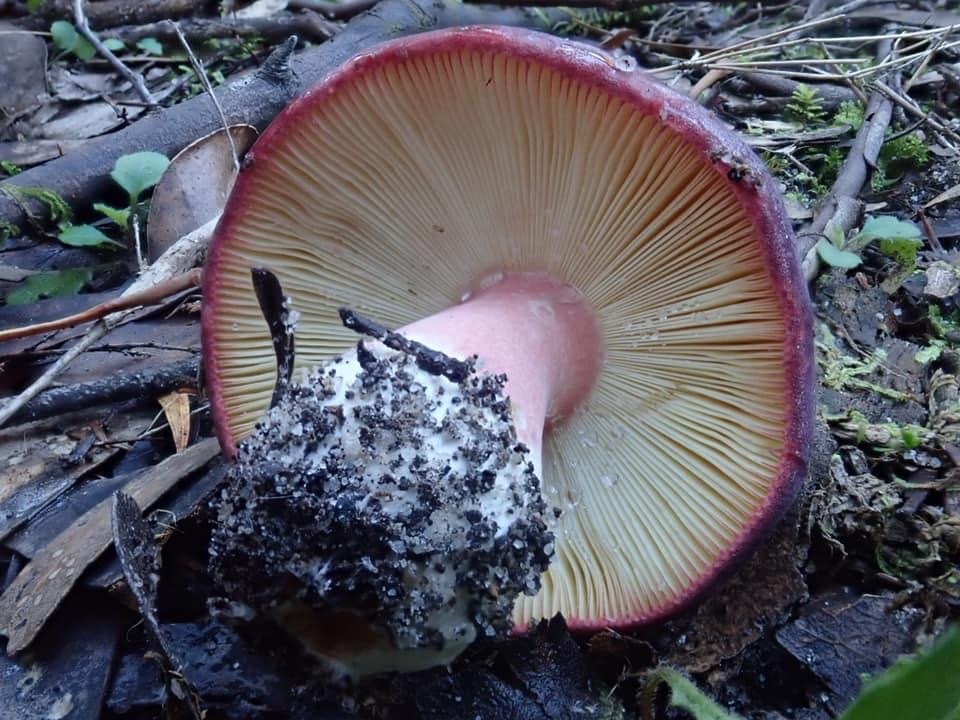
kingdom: Fungi
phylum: Basidiomycota
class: Agaricomycetes
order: Russulales
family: Russulaceae
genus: Russula
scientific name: Russula lenkunya
